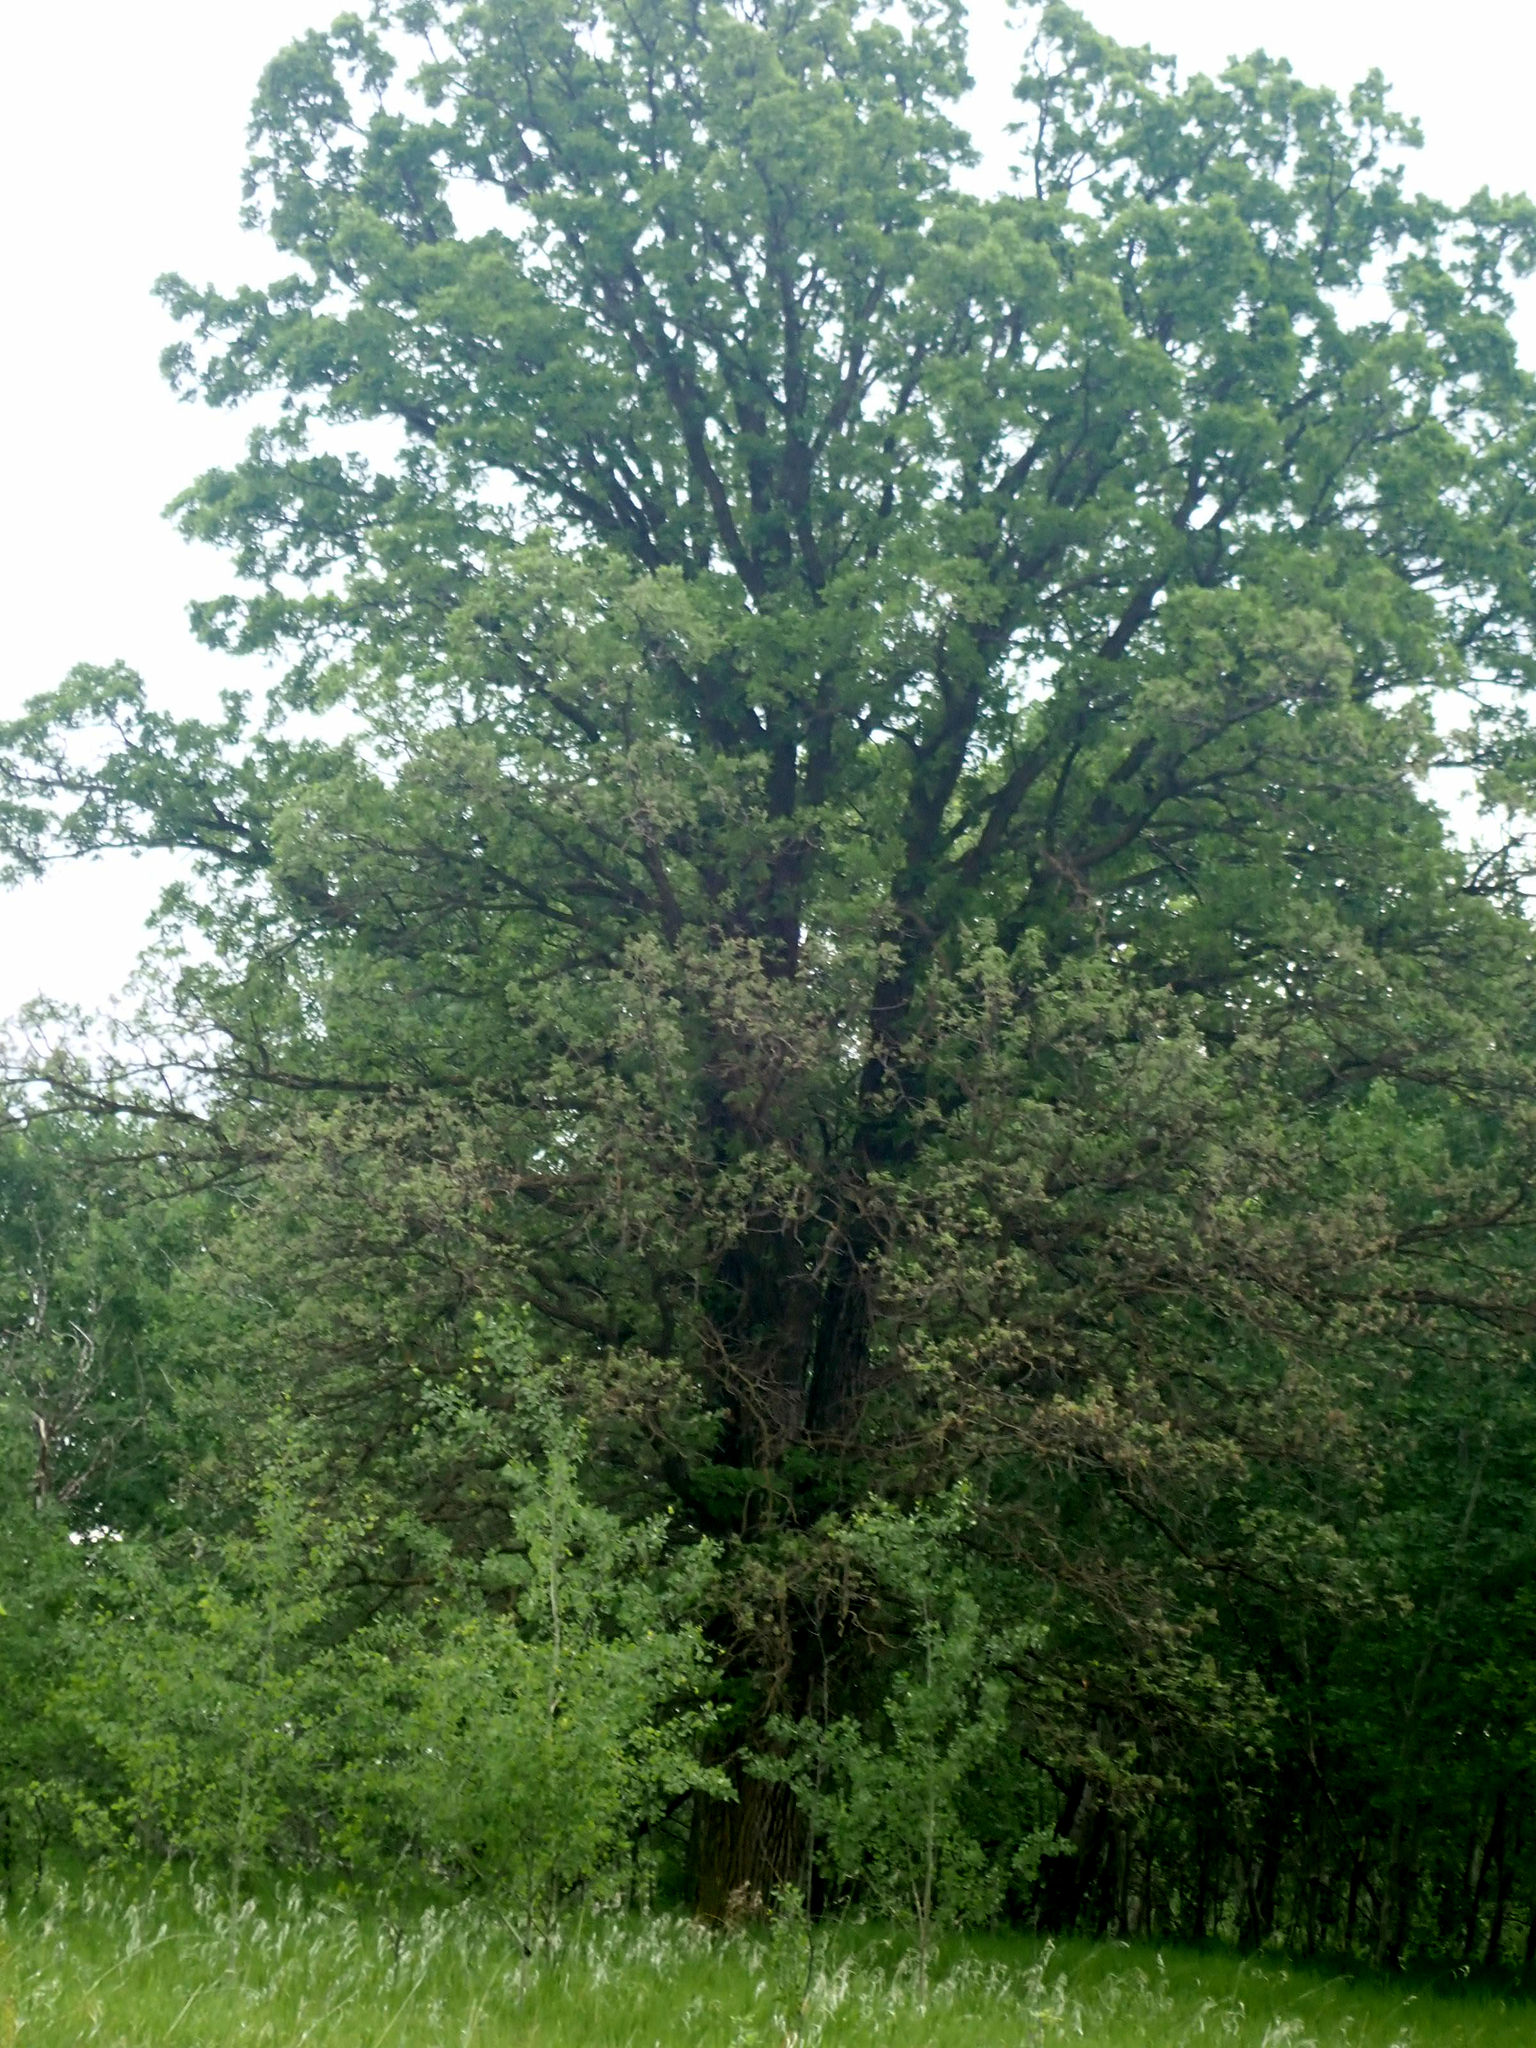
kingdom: Plantae
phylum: Tracheophyta
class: Magnoliopsida
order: Fagales
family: Fagaceae
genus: Quercus
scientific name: Quercus macrocarpa
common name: Bur oak
